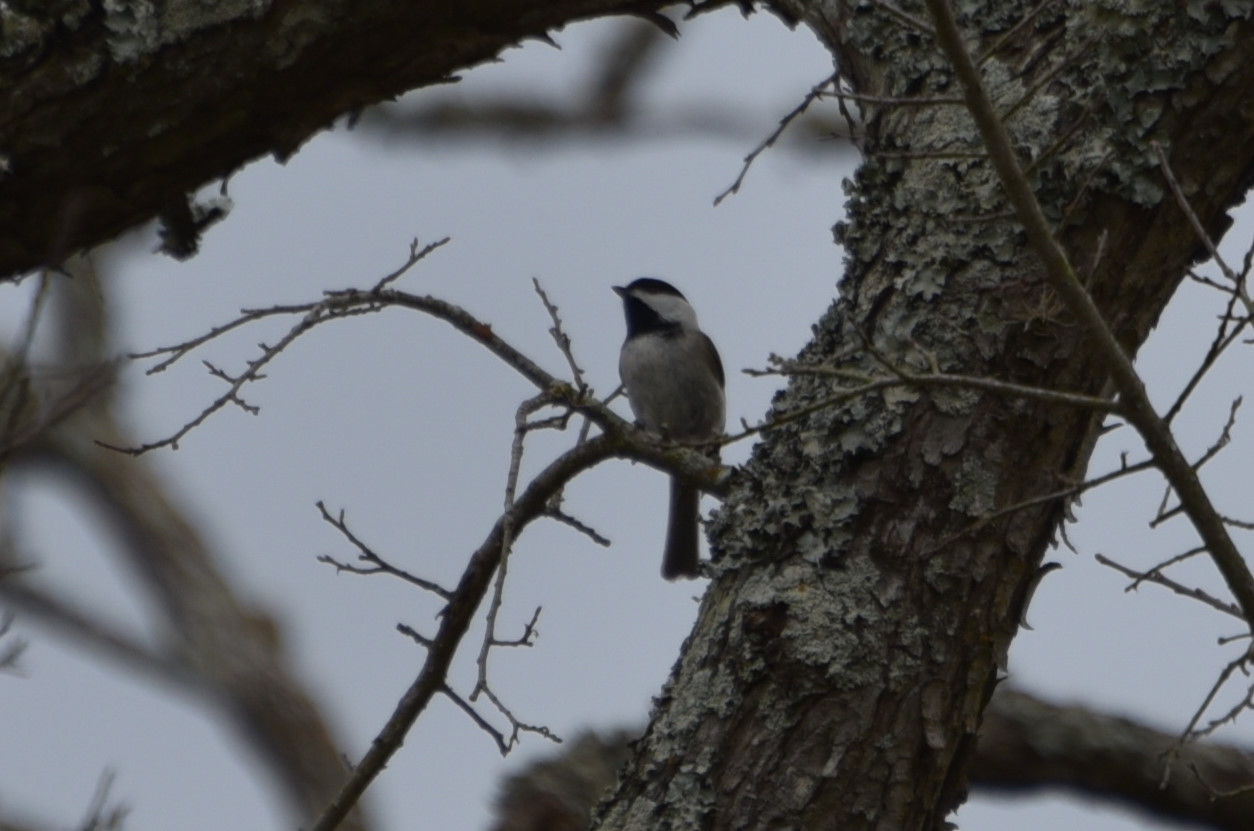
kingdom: Animalia
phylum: Chordata
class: Aves
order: Passeriformes
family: Paridae
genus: Poecile
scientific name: Poecile carolinensis
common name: Carolina chickadee
